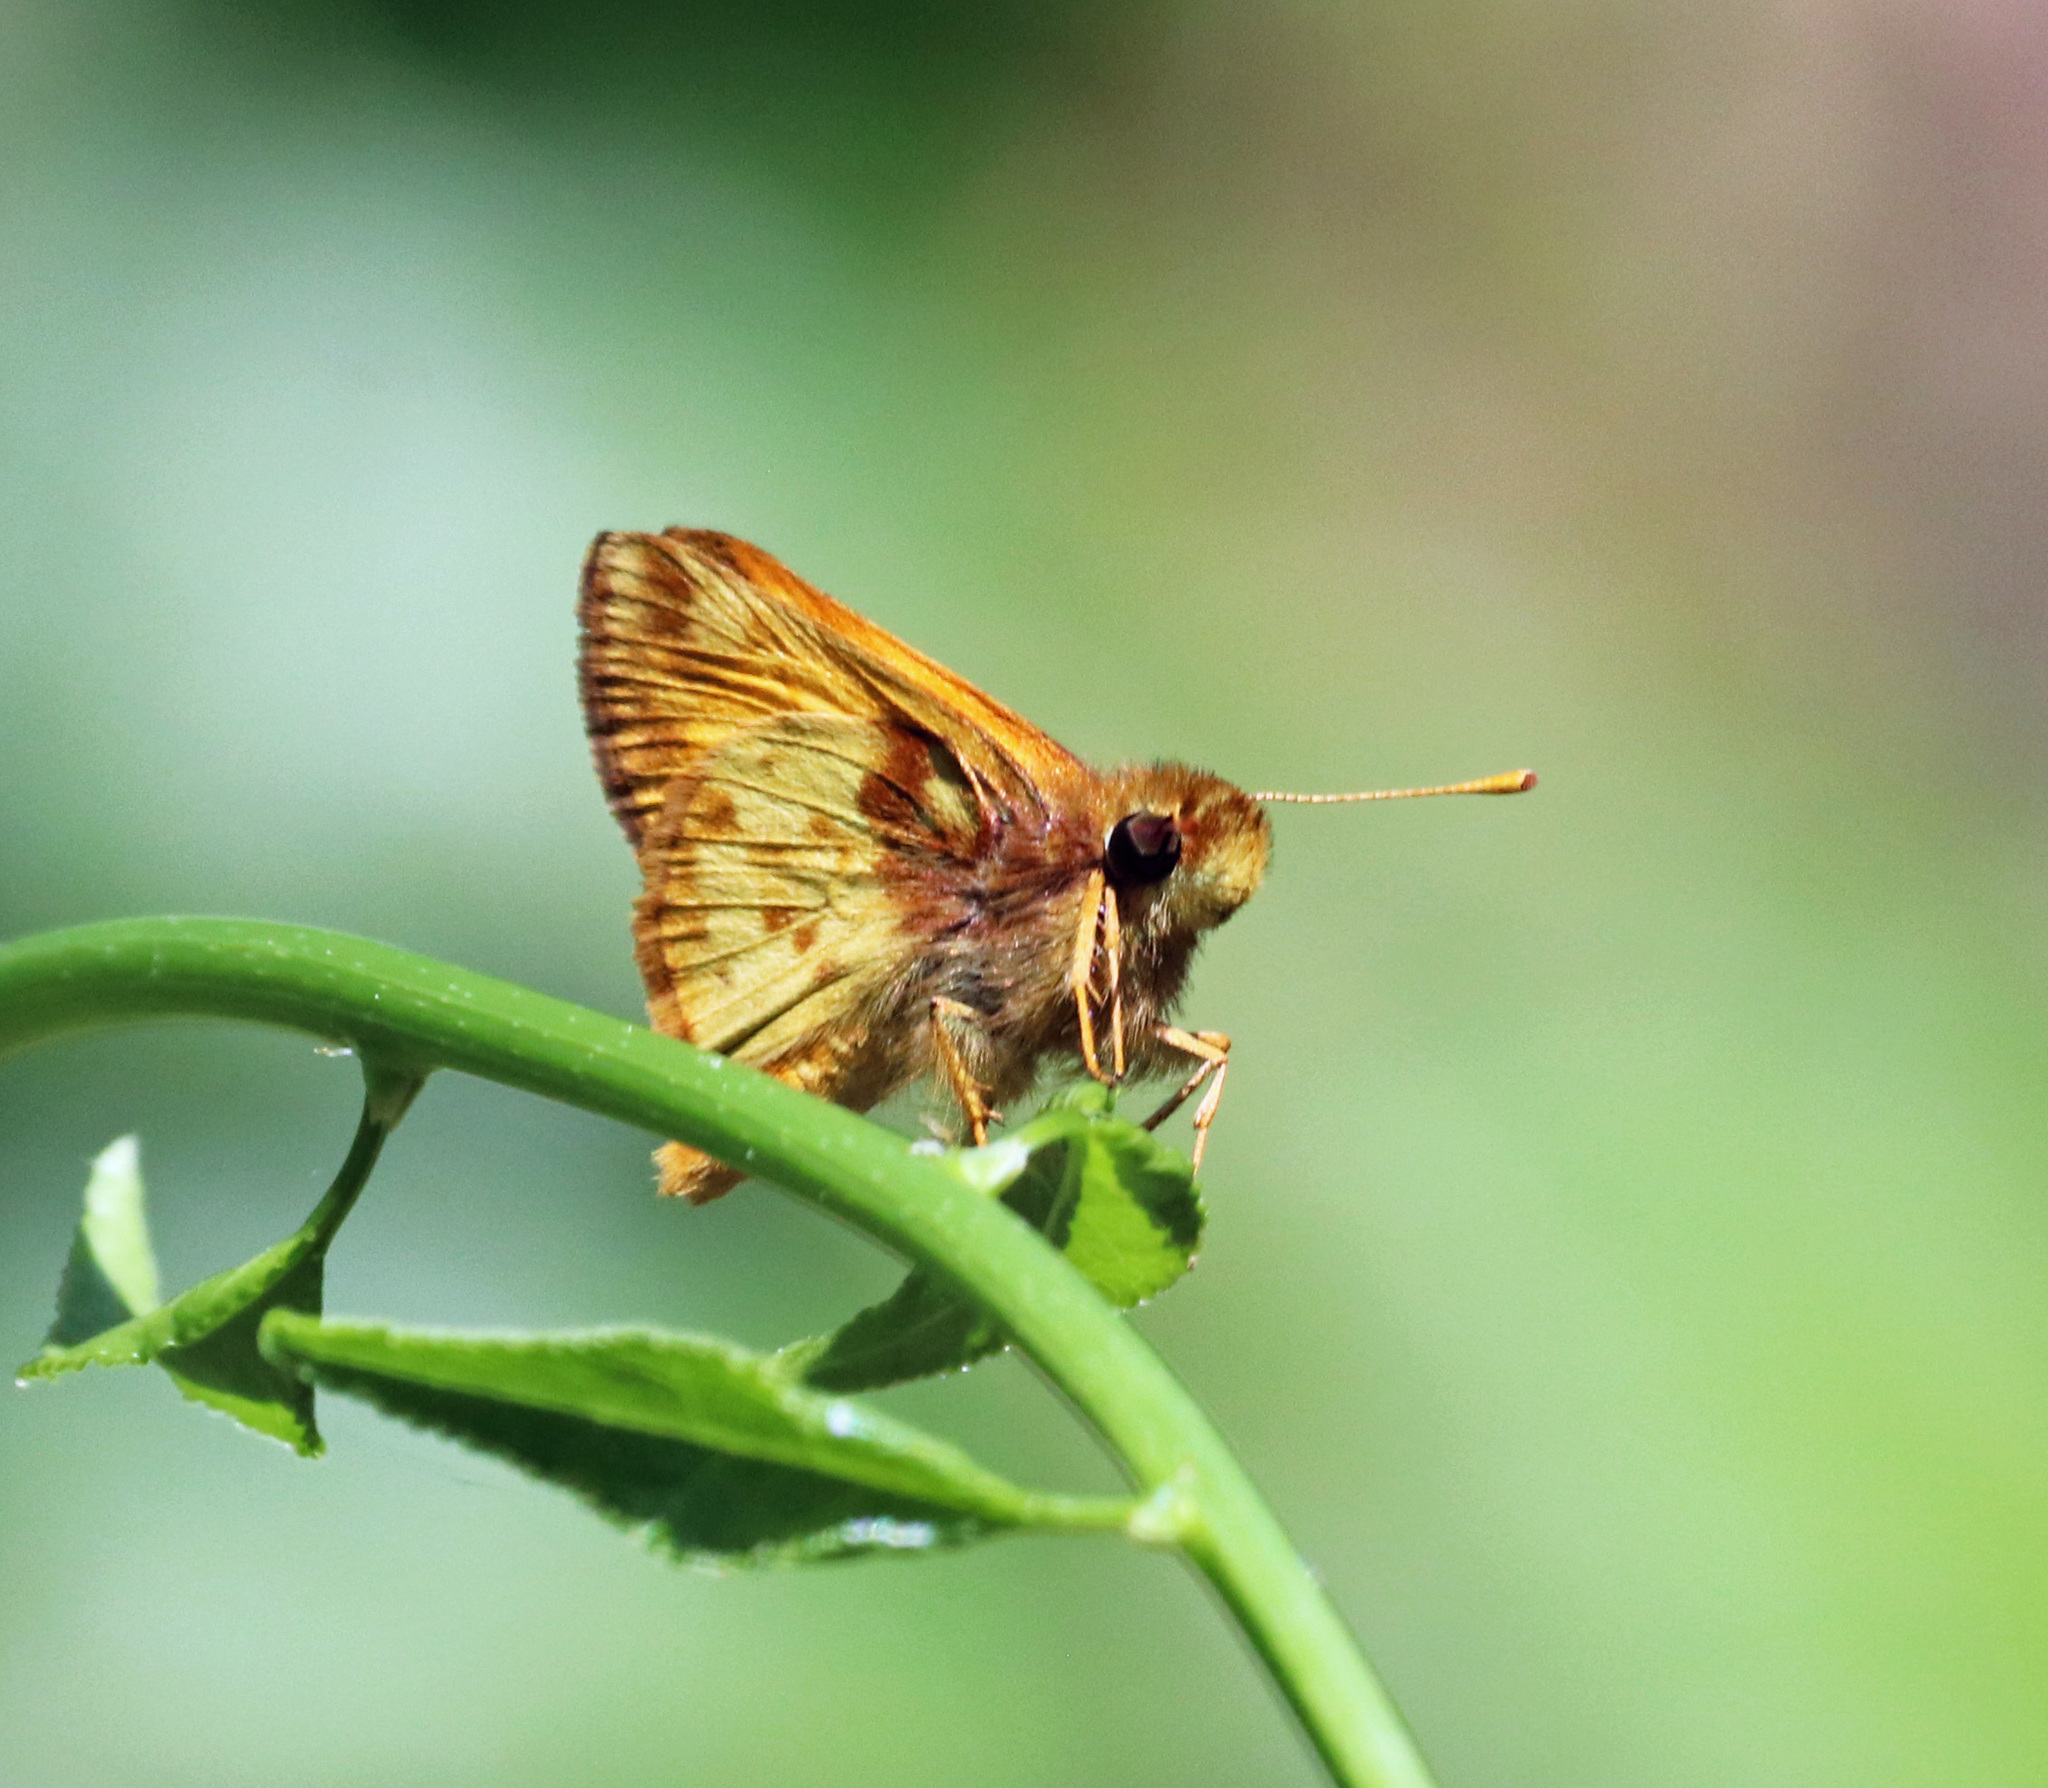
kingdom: Animalia
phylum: Arthropoda
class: Insecta
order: Lepidoptera
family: Hesperiidae
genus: Lon
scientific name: Lon zabulon
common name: Zabulon skipper
